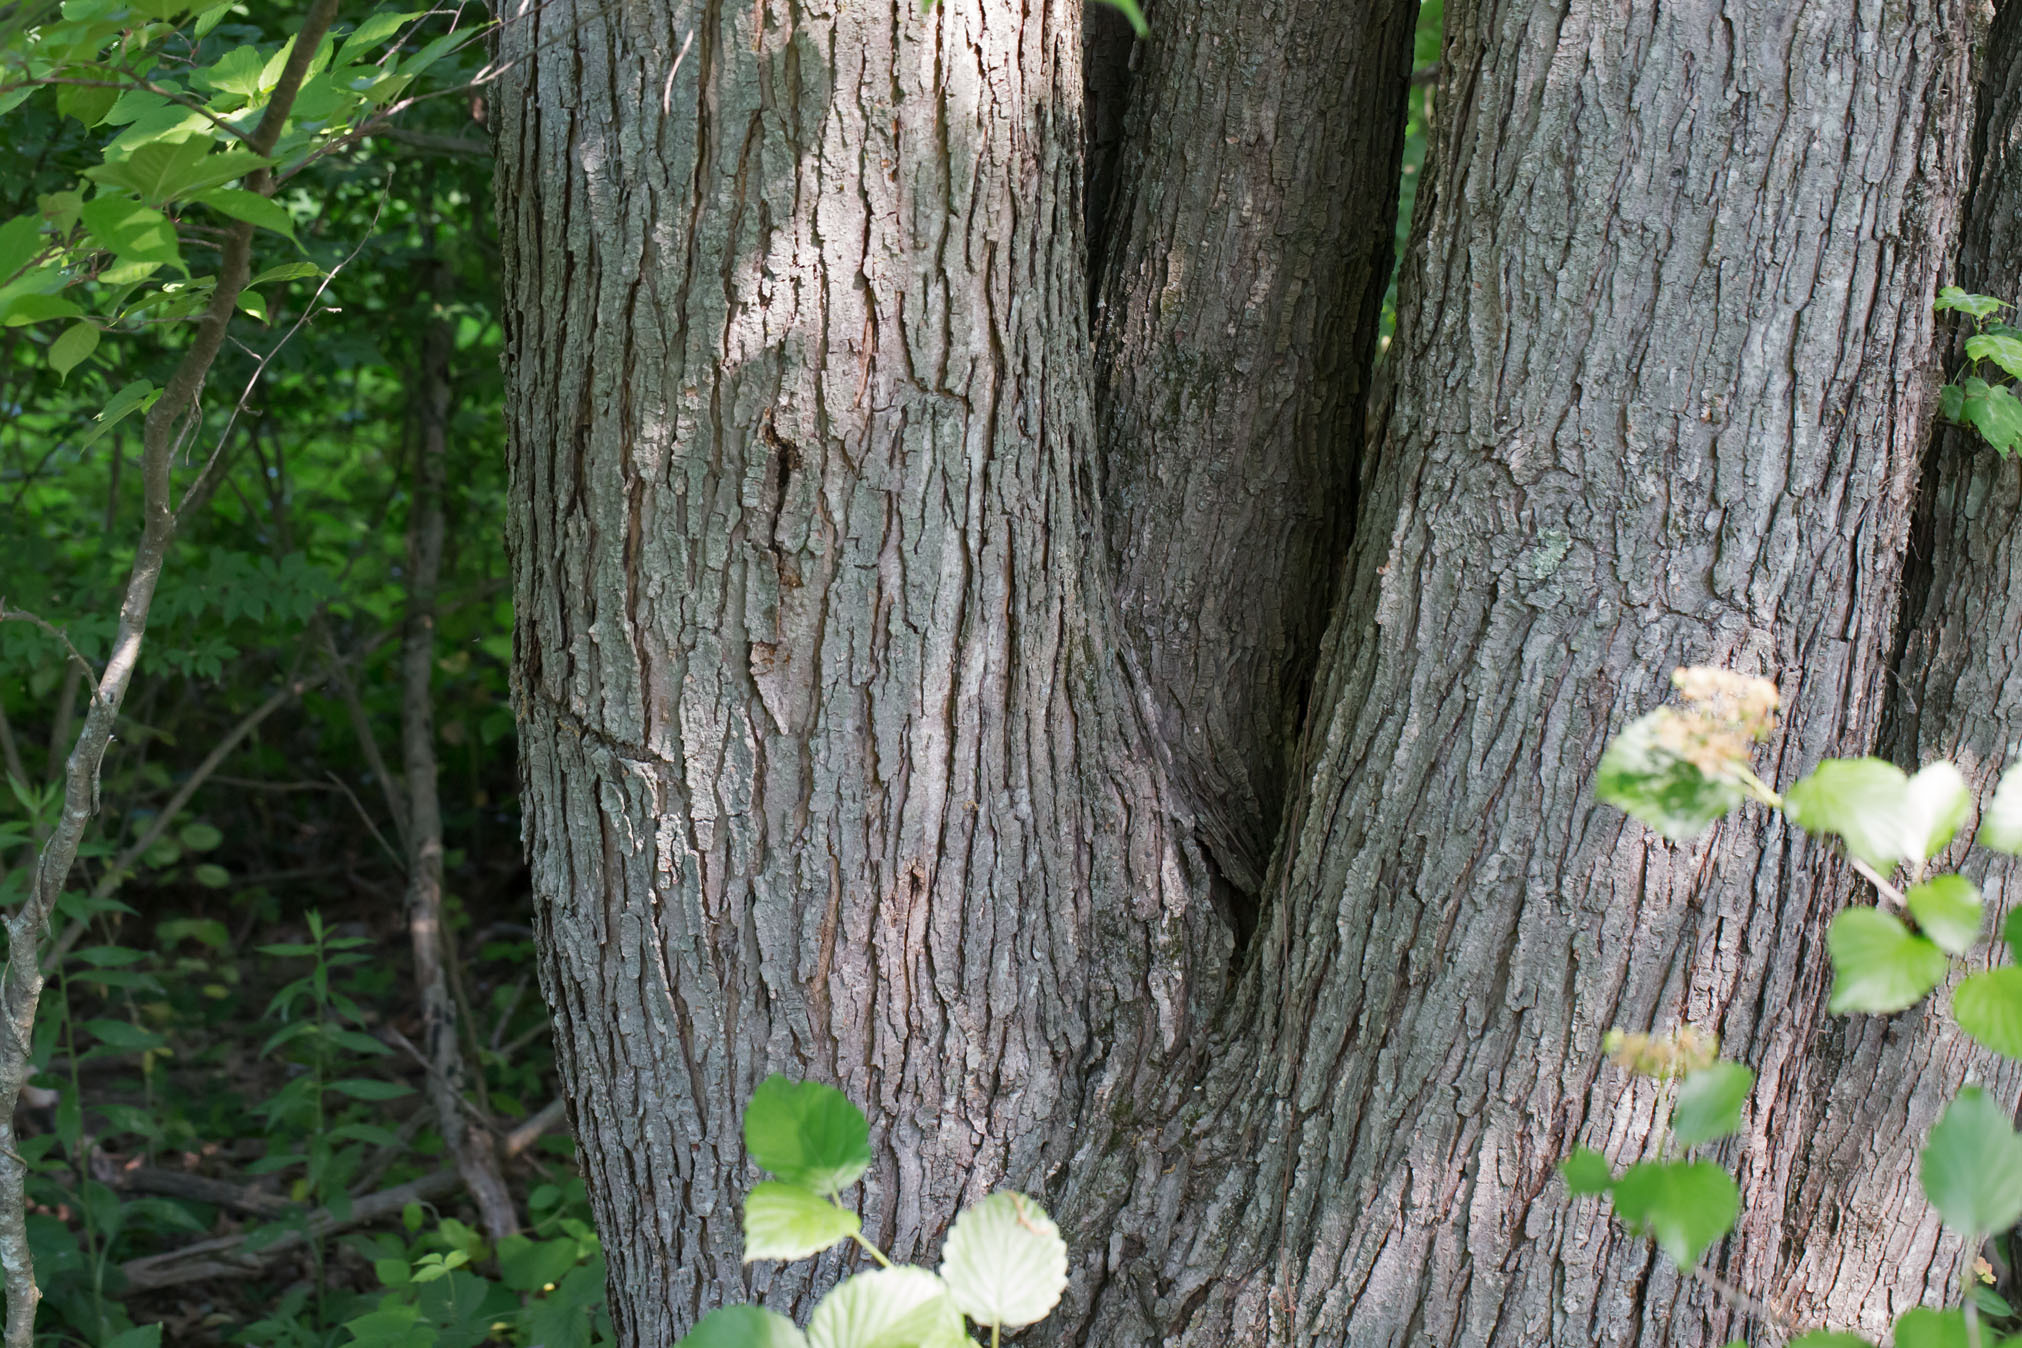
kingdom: Plantae
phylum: Tracheophyta
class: Magnoliopsida
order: Sapindales
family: Sapindaceae
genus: Acer
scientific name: Acer rubrum
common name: Red maple
